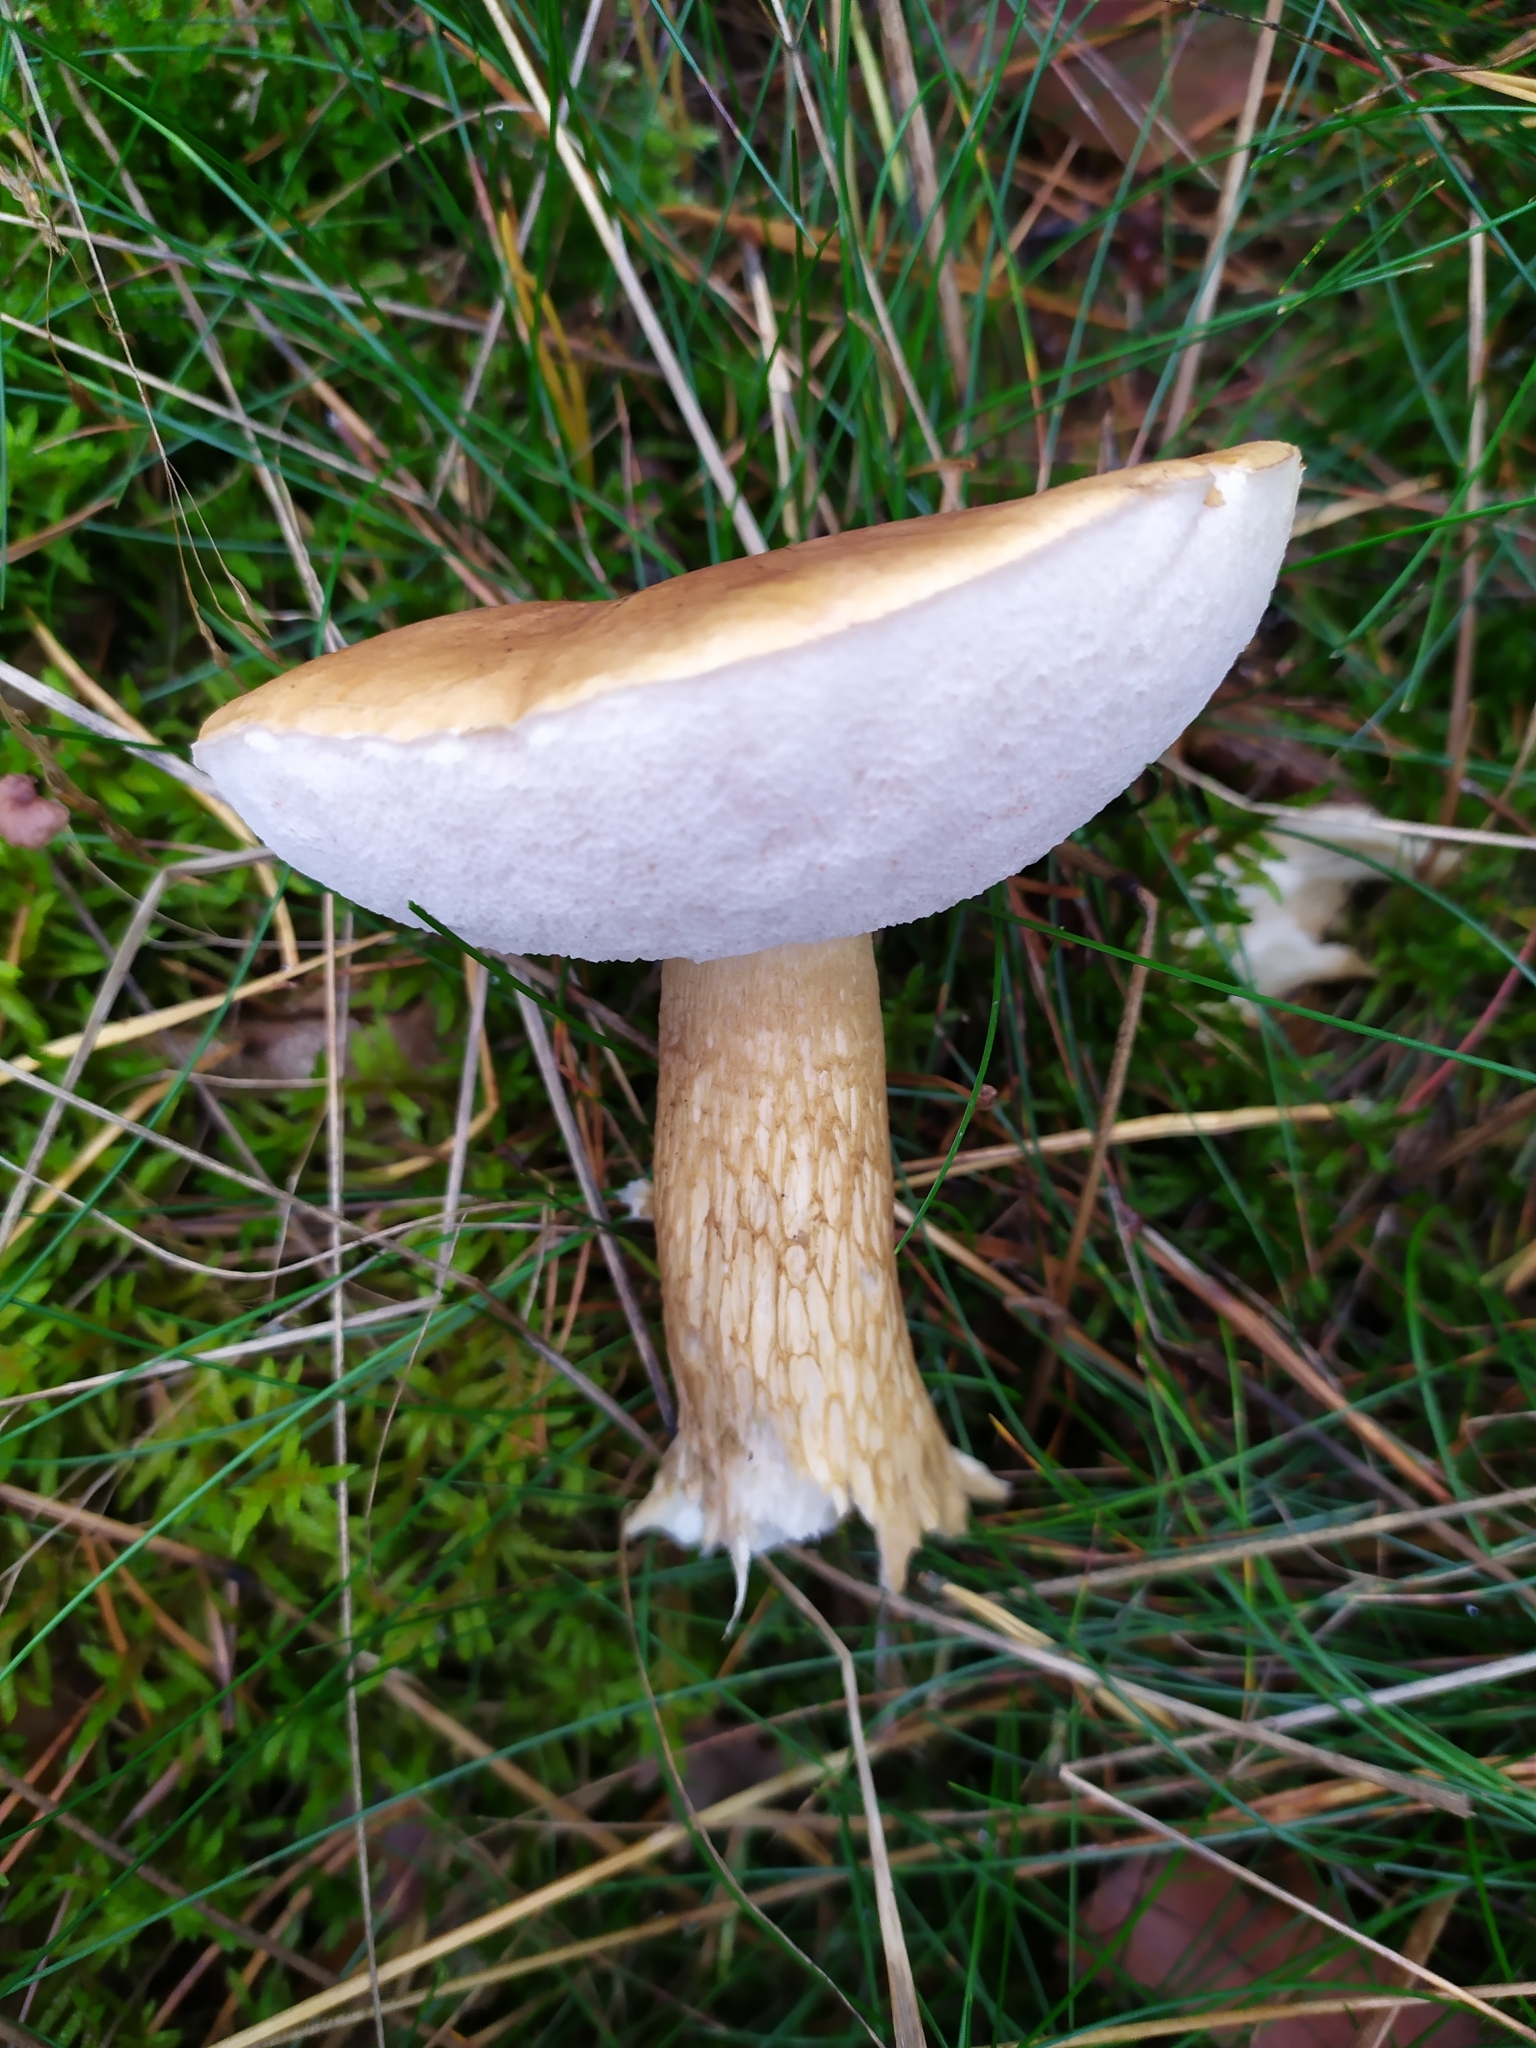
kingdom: Fungi
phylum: Basidiomycota
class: Agaricomycetes
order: Boletales
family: Boletaceae
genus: Tylopilus
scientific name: Tylopilus felleus
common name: Bitter bolete
